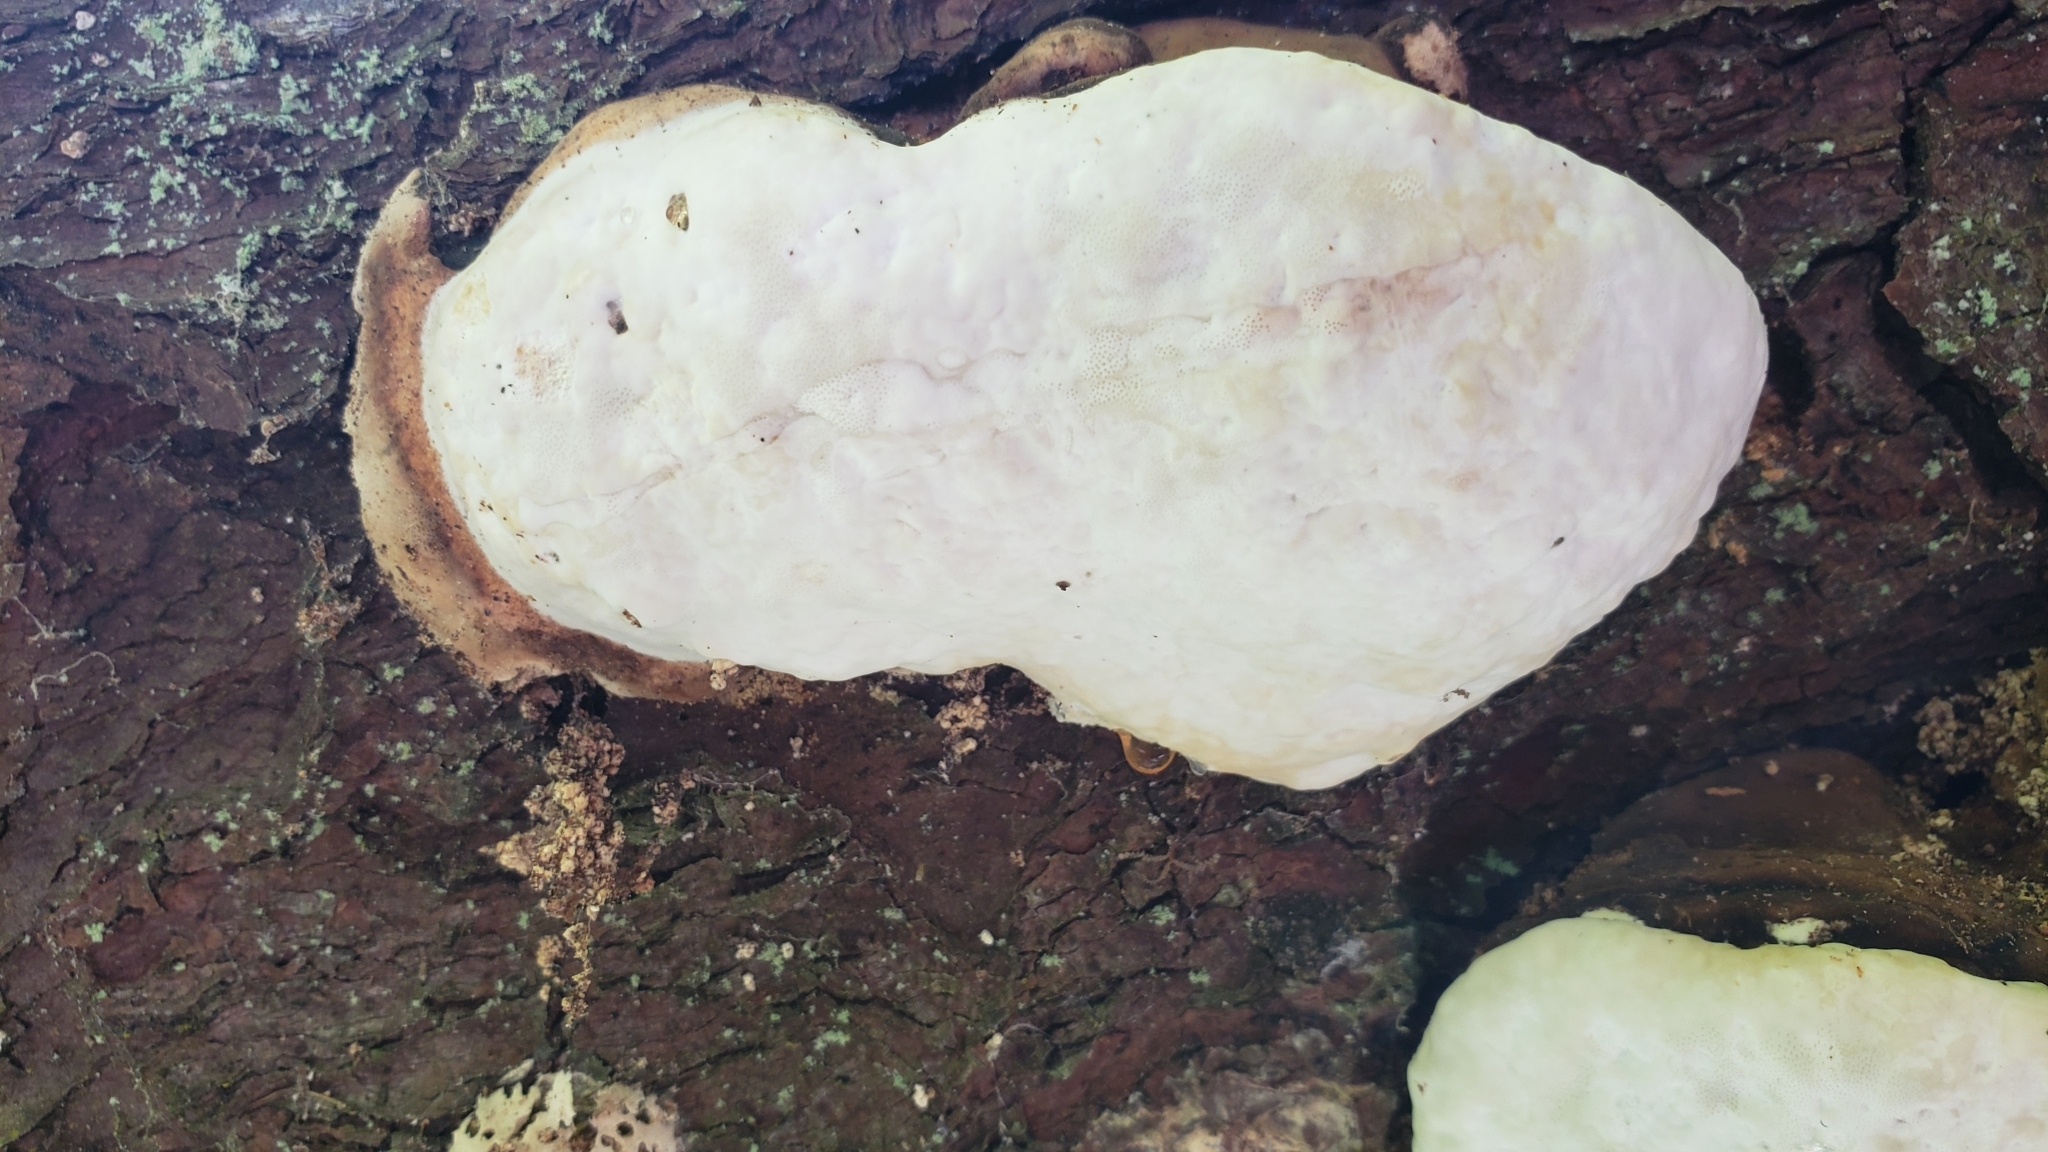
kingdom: Fungi
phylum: Basidiomycota
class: Agaricomycetes
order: Polyporales
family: Fomitopsidaceae
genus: Fomitopsis
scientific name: Fomitopsis ochracea
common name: American brown fomitopsis
